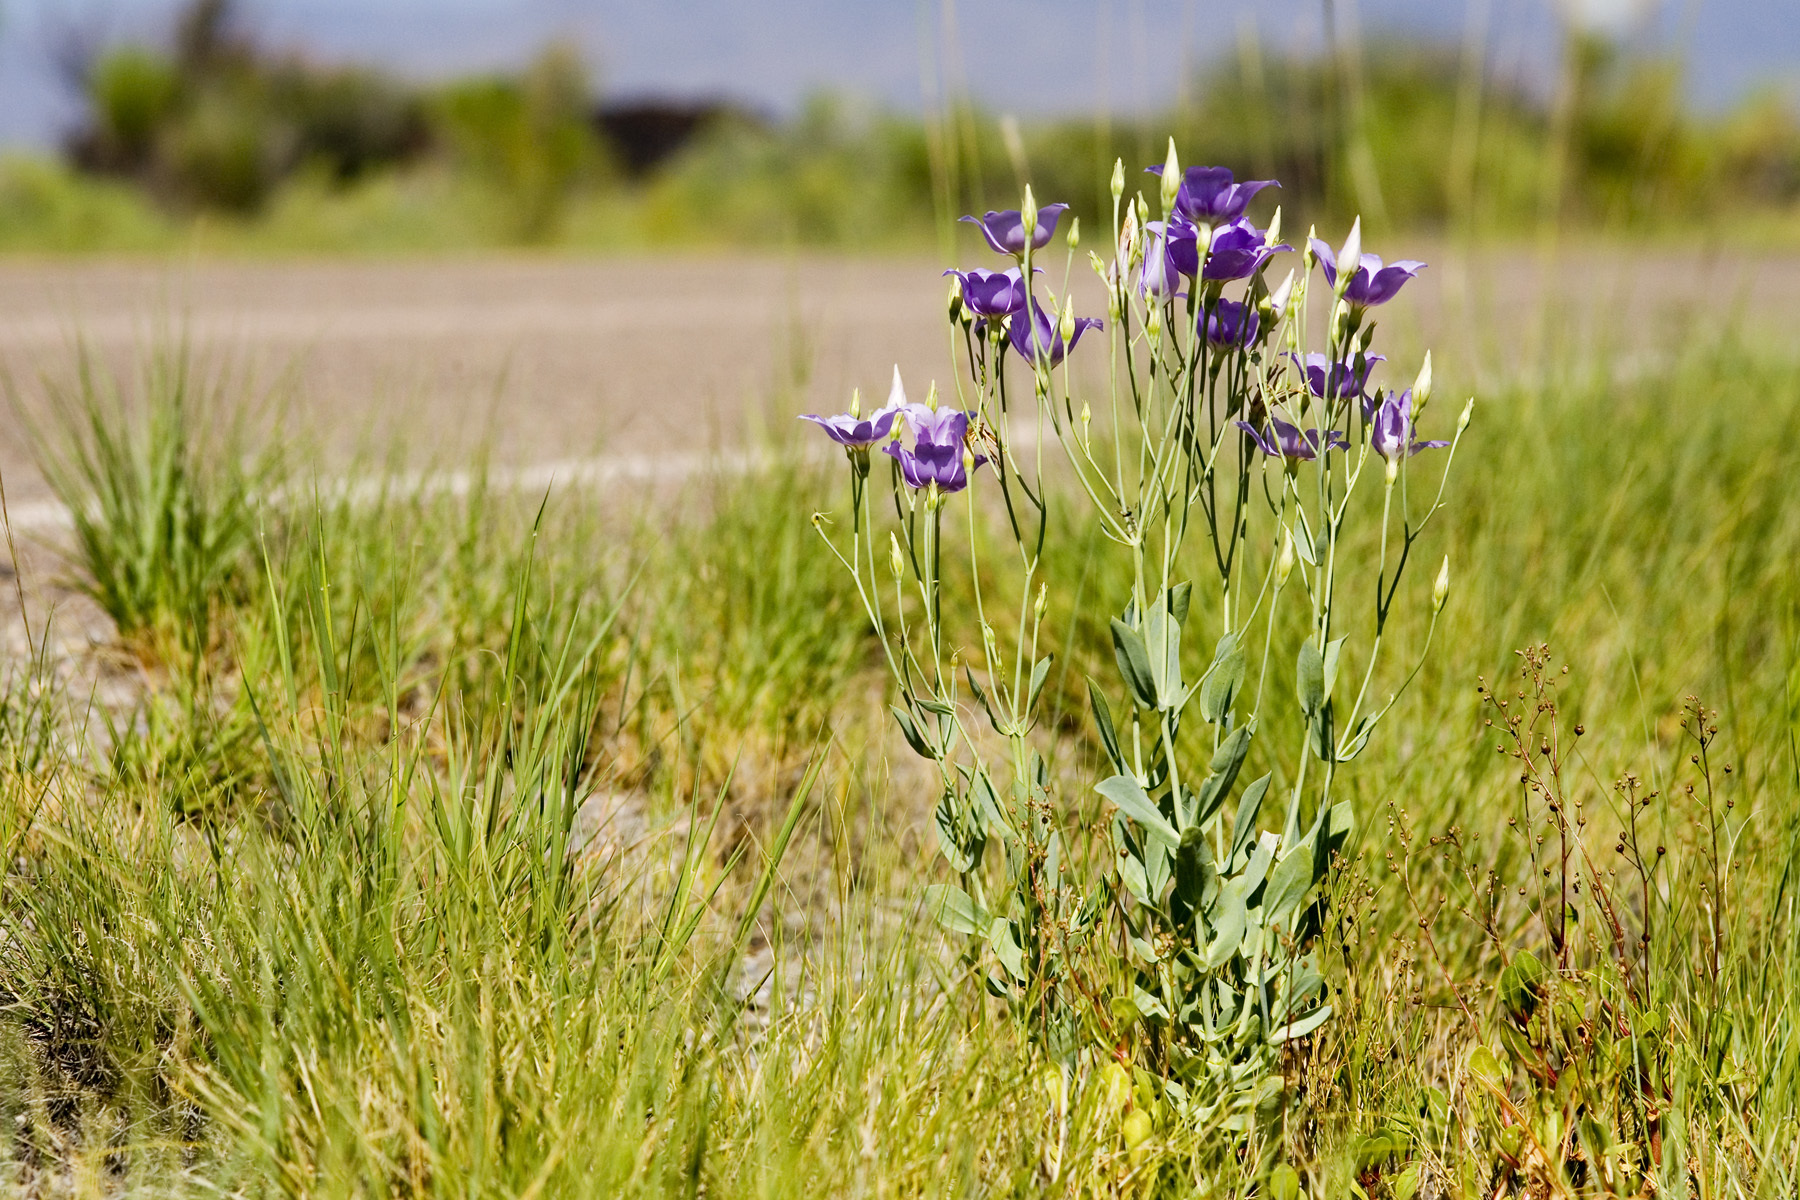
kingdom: Plantae
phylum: Tracheophyta
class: Magnoliopsida
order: Gentianales
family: Gentianaceae
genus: Eustoma
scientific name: Eustoma exaltatum
